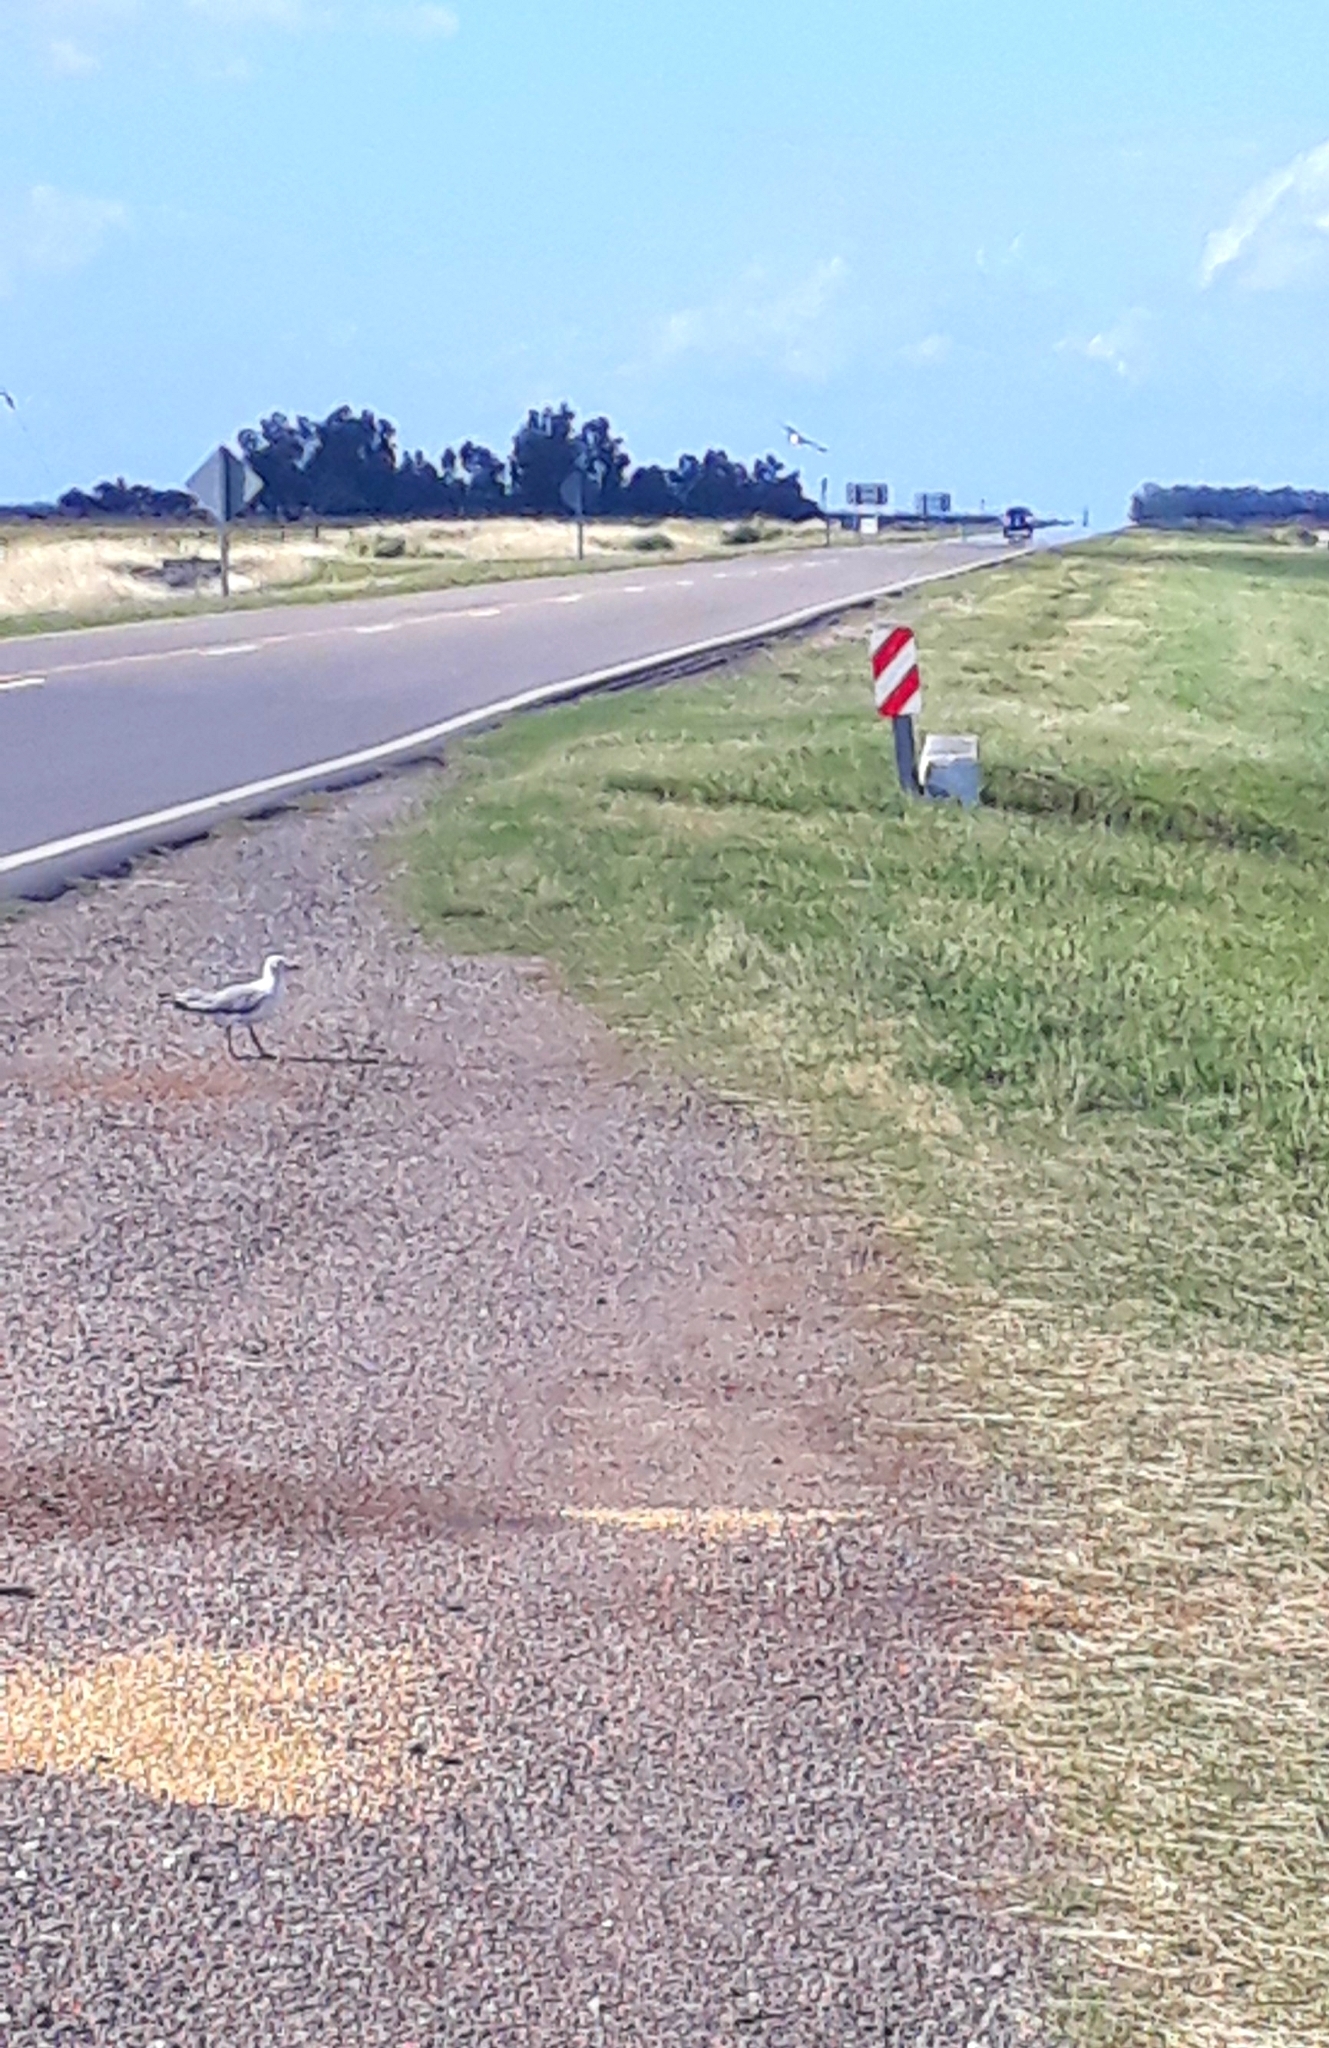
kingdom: Animalia
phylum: Chordata
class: Aves
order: Charadriiformes
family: Laridae
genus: Chroicocephalus
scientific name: Chroicocephalus cirrocephalus
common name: Grey-headed gull
